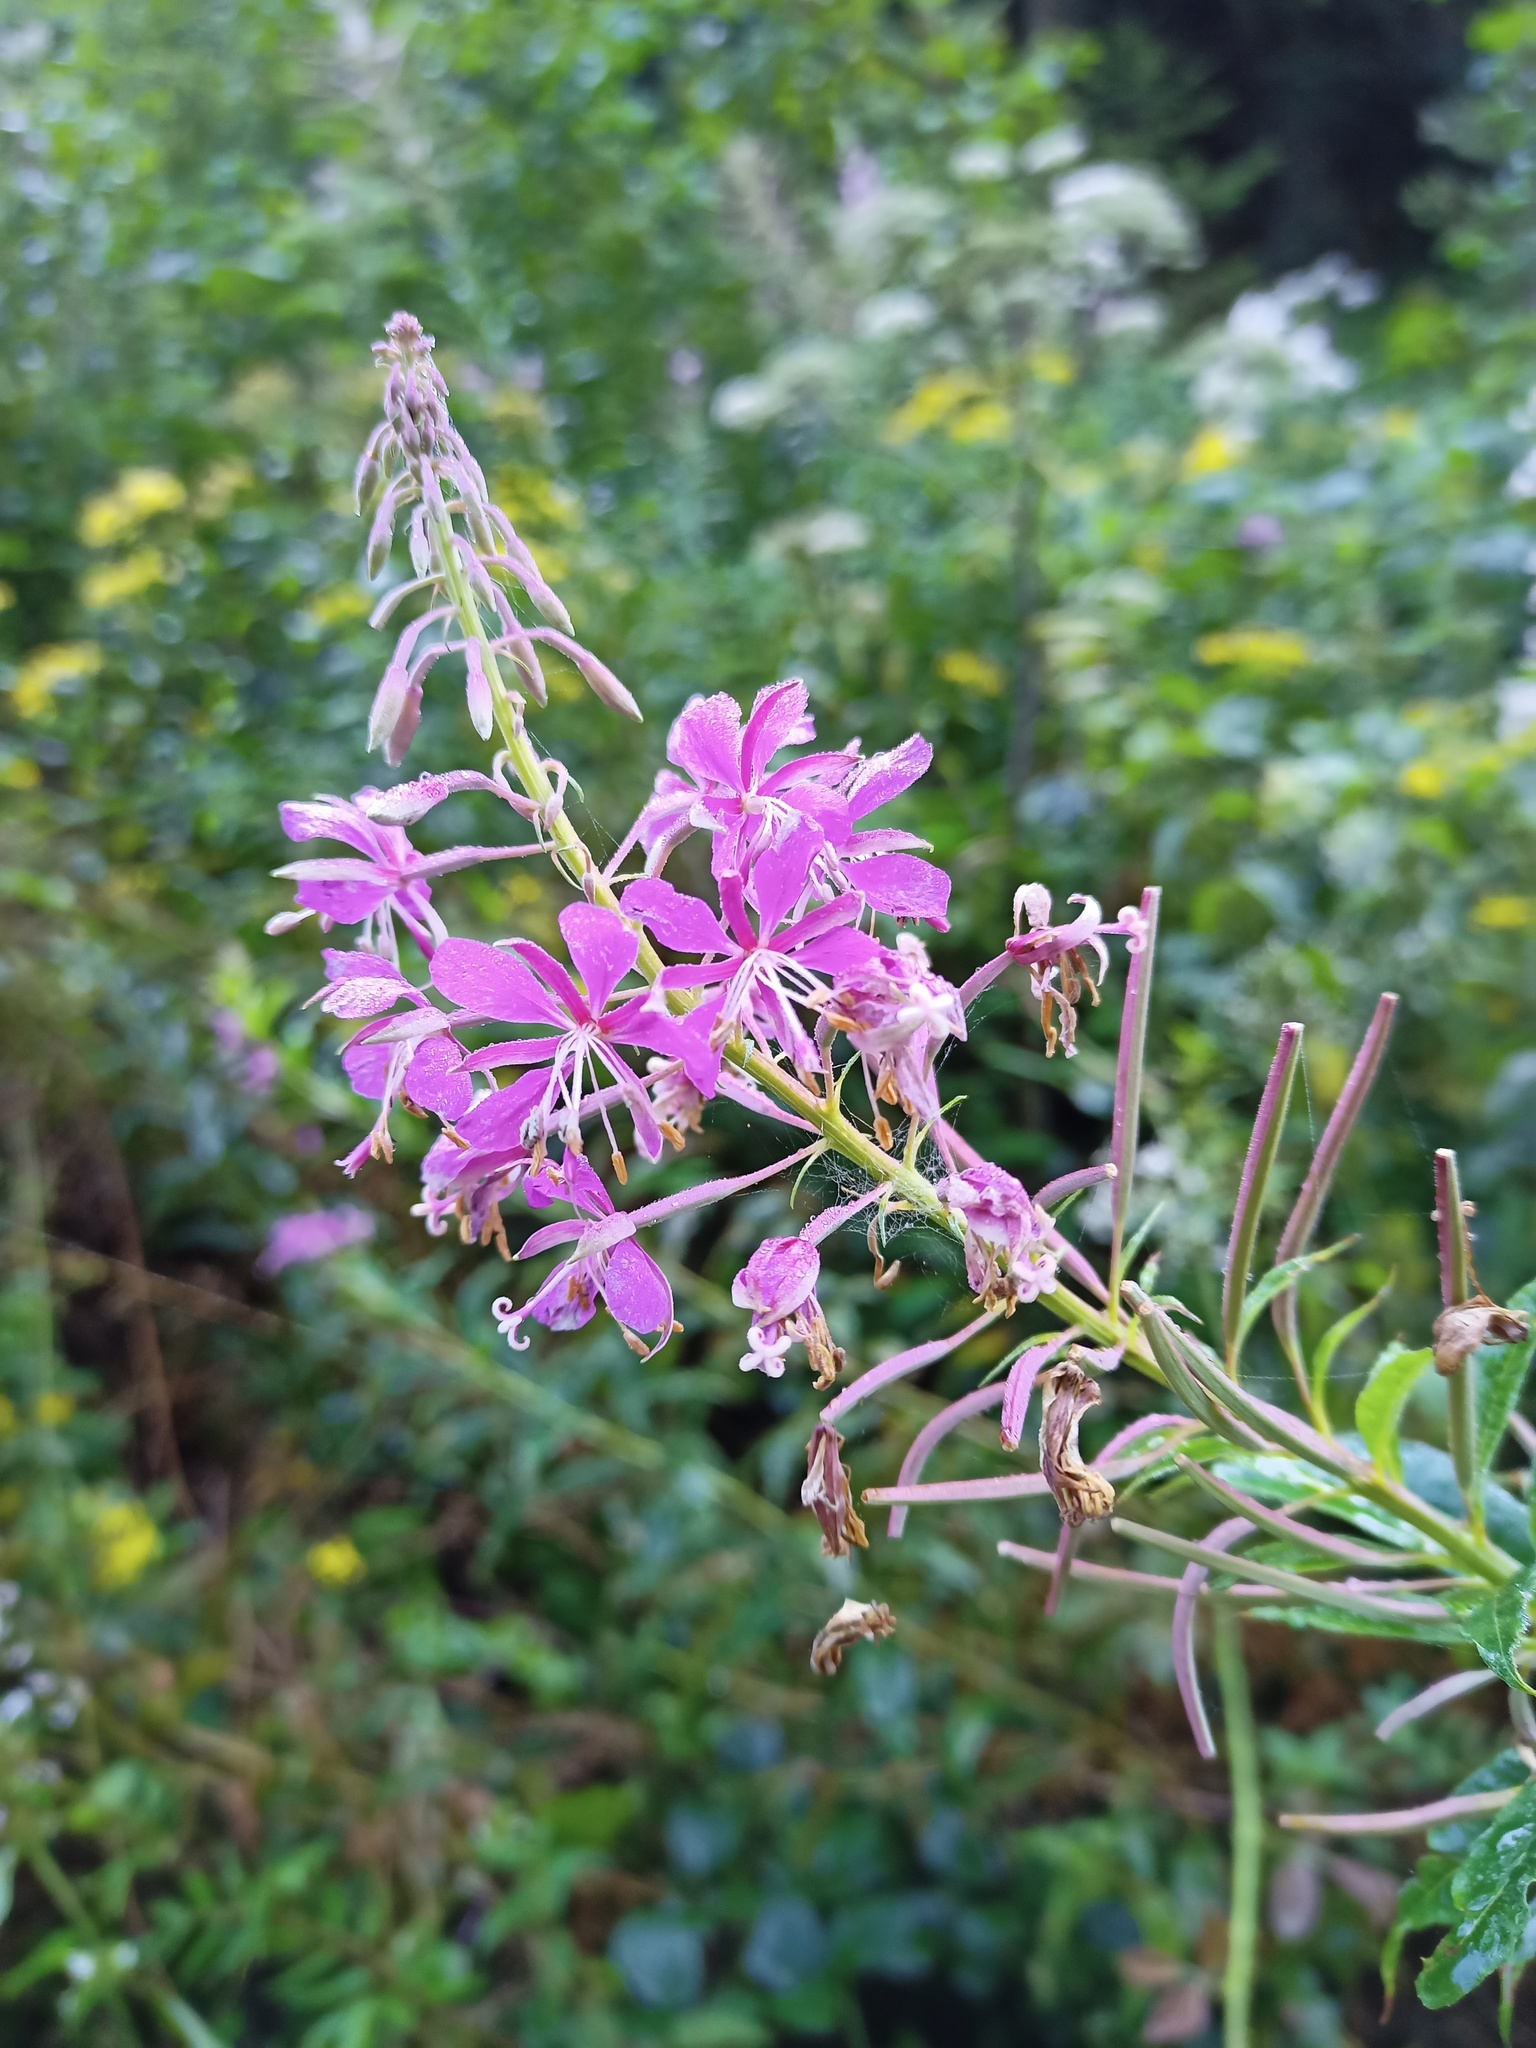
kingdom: Plantae
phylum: Tracheophyta
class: Magnoliopsida
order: Myrtales
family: Onagraceae
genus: Chamaenerion
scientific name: Chamaenerion angustifolium
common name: Fireweed
